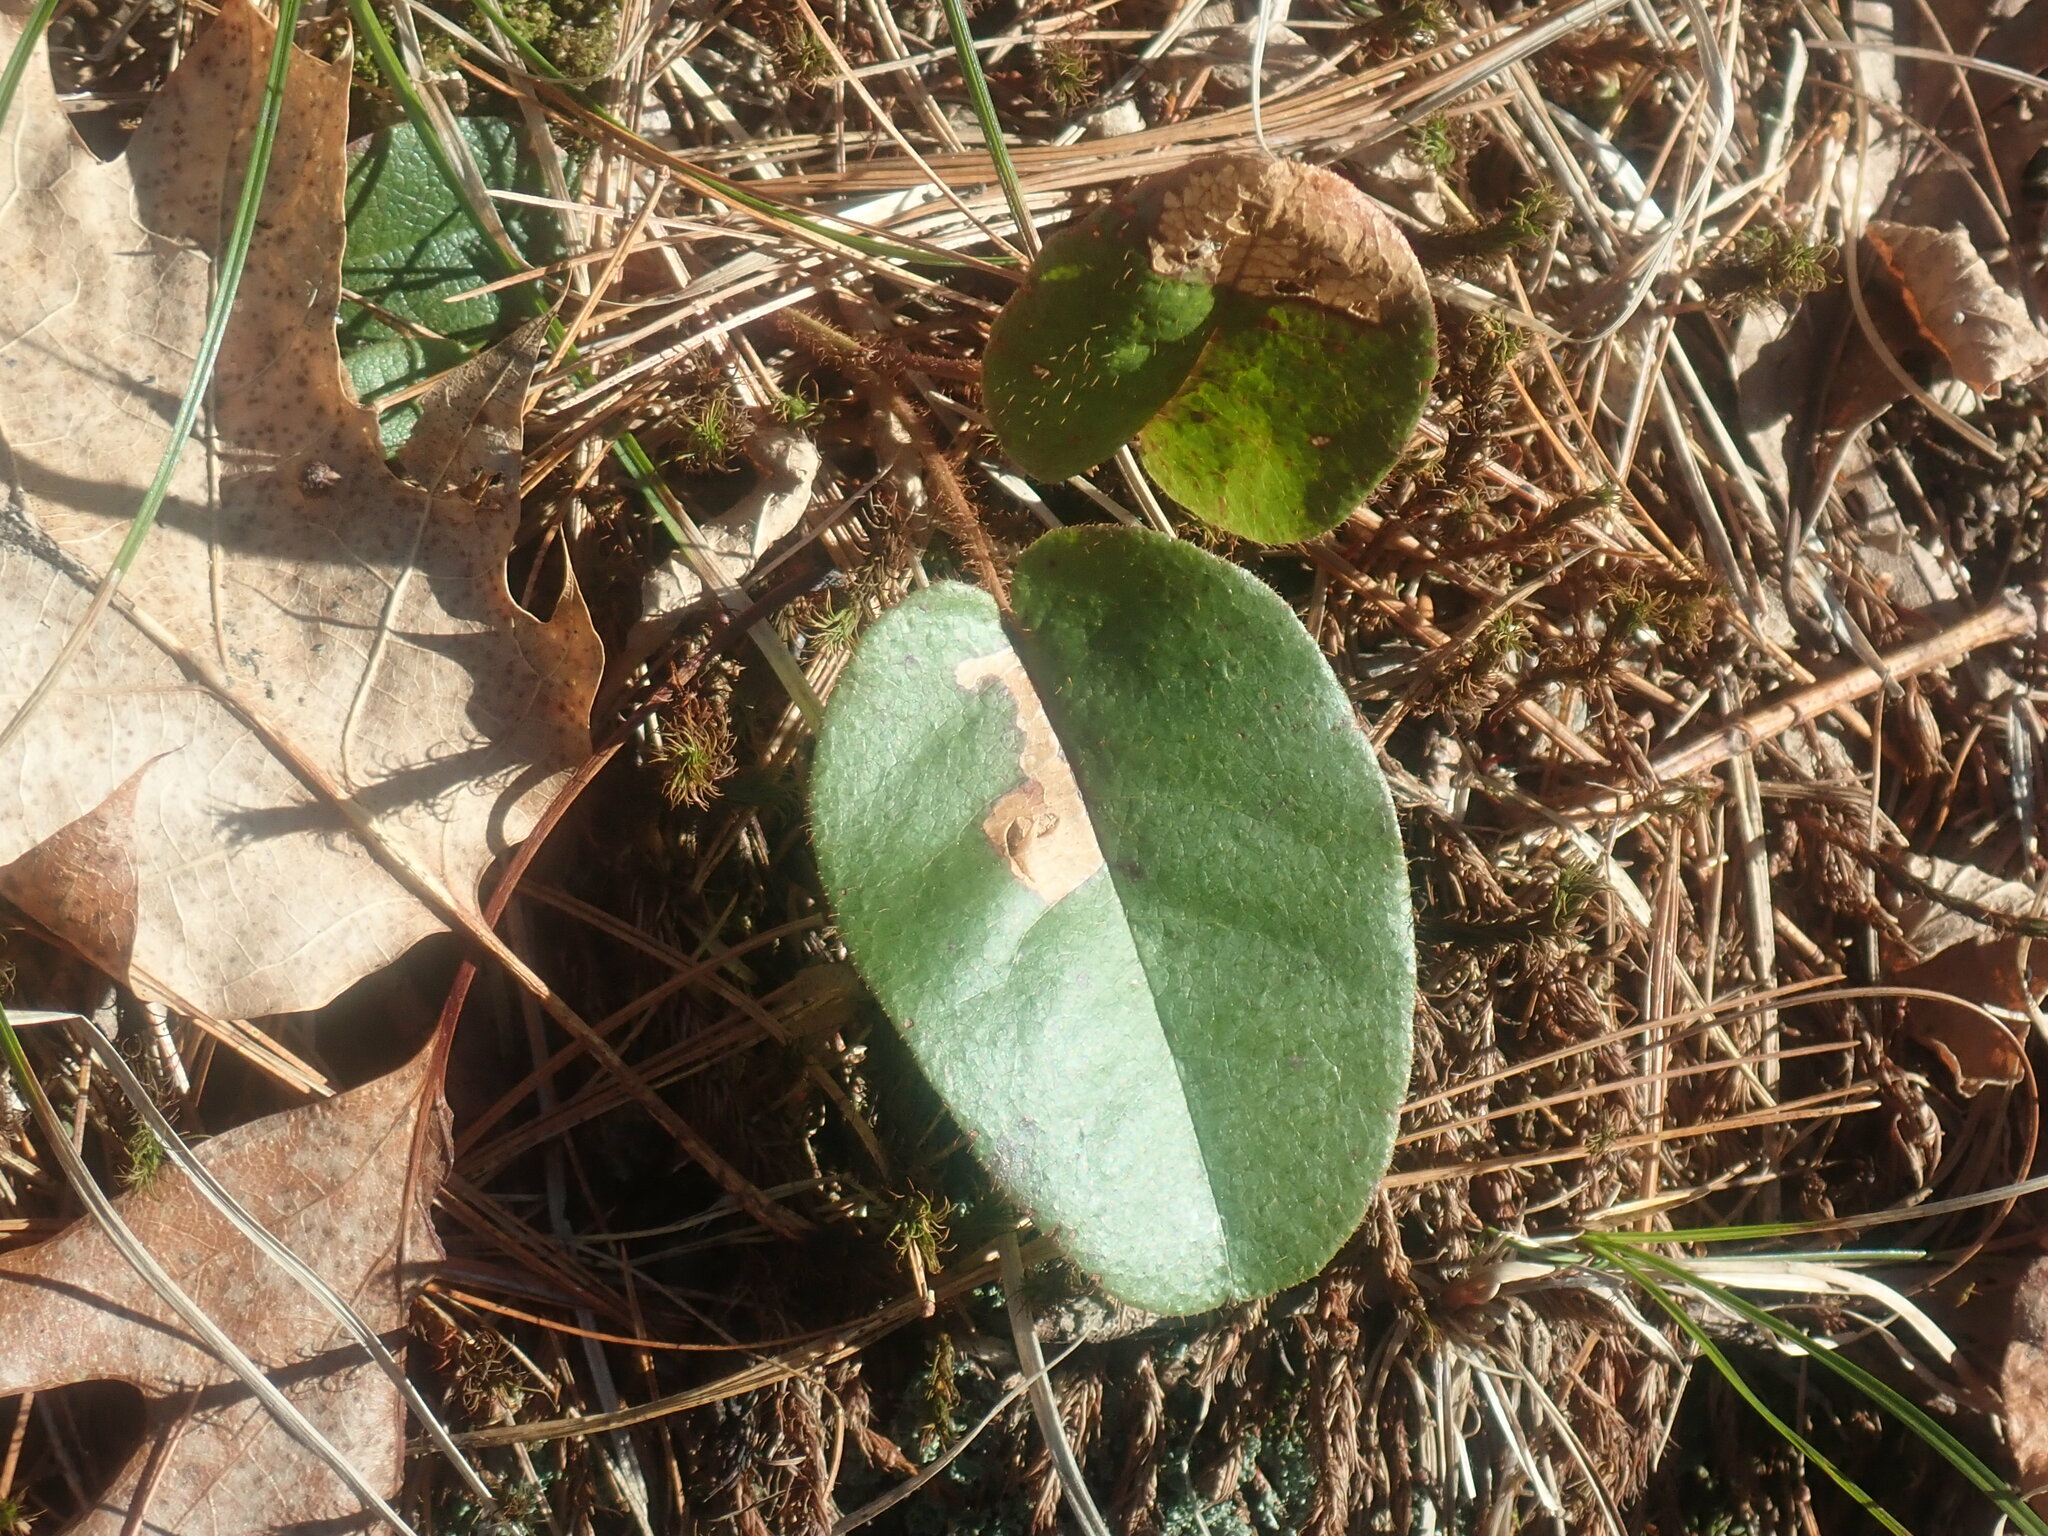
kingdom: Plantae
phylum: Tracheophyta
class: Magnoliopsida
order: Ericales
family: Ericaceae
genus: Epigaea
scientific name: Epigaea repens
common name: Gravelroot
